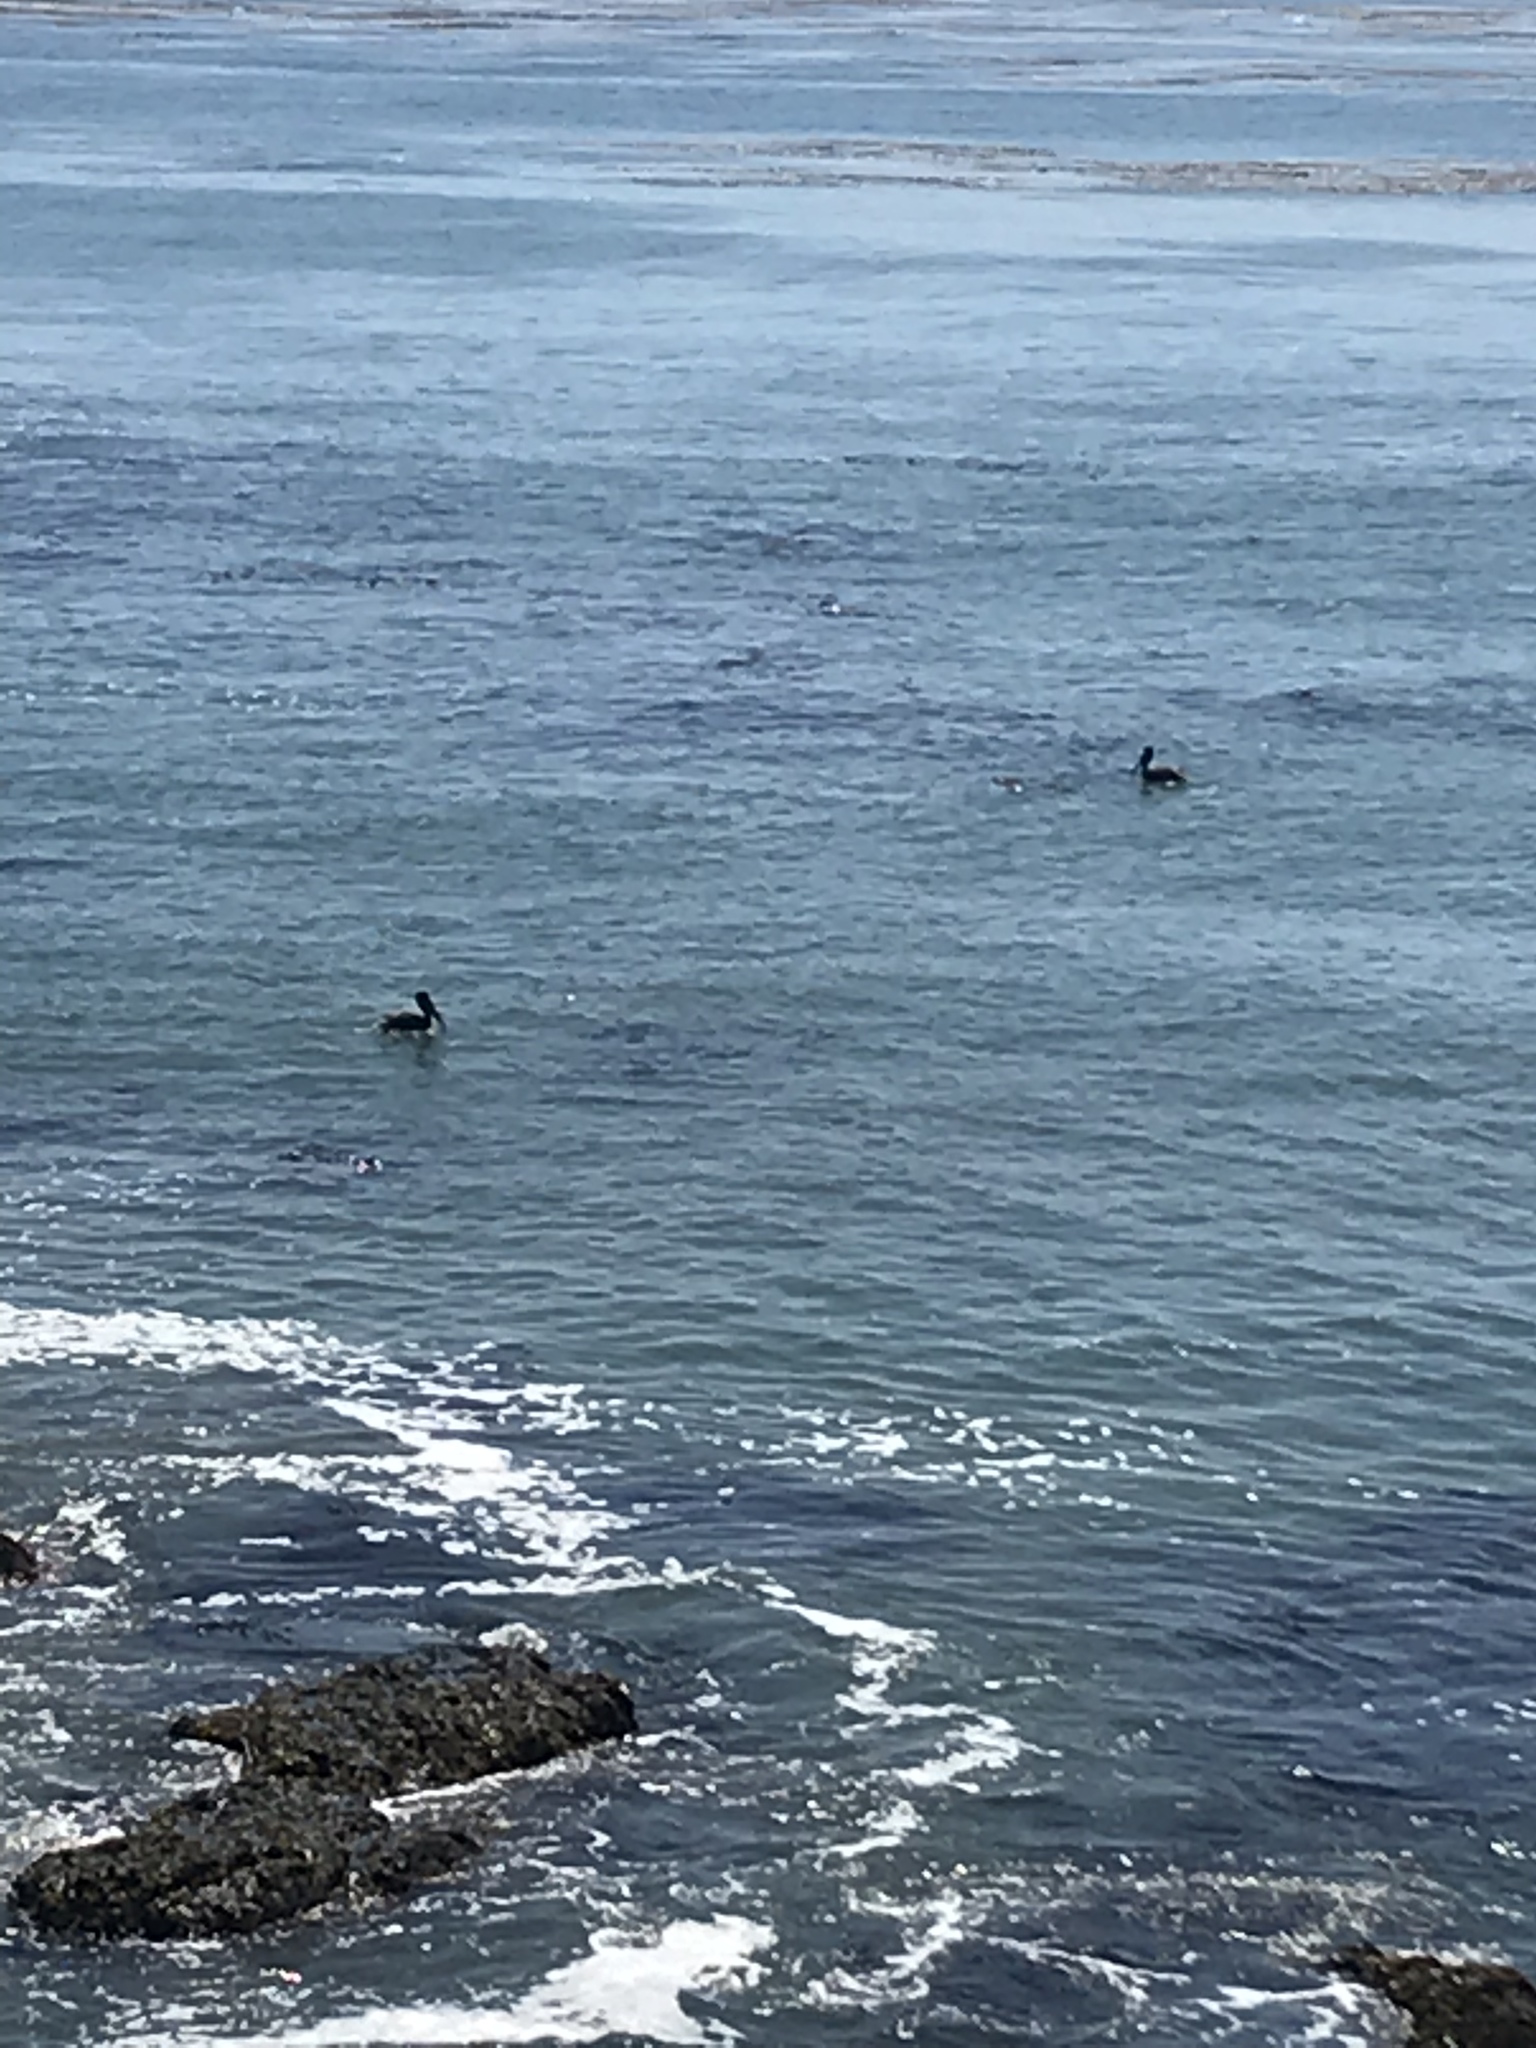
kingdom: Animalia
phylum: Chordata
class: Aves
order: Pelecaniformes
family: Pelecanidae
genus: Pelecanus
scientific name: Pelecanus occidentalis
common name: Brown pelican
